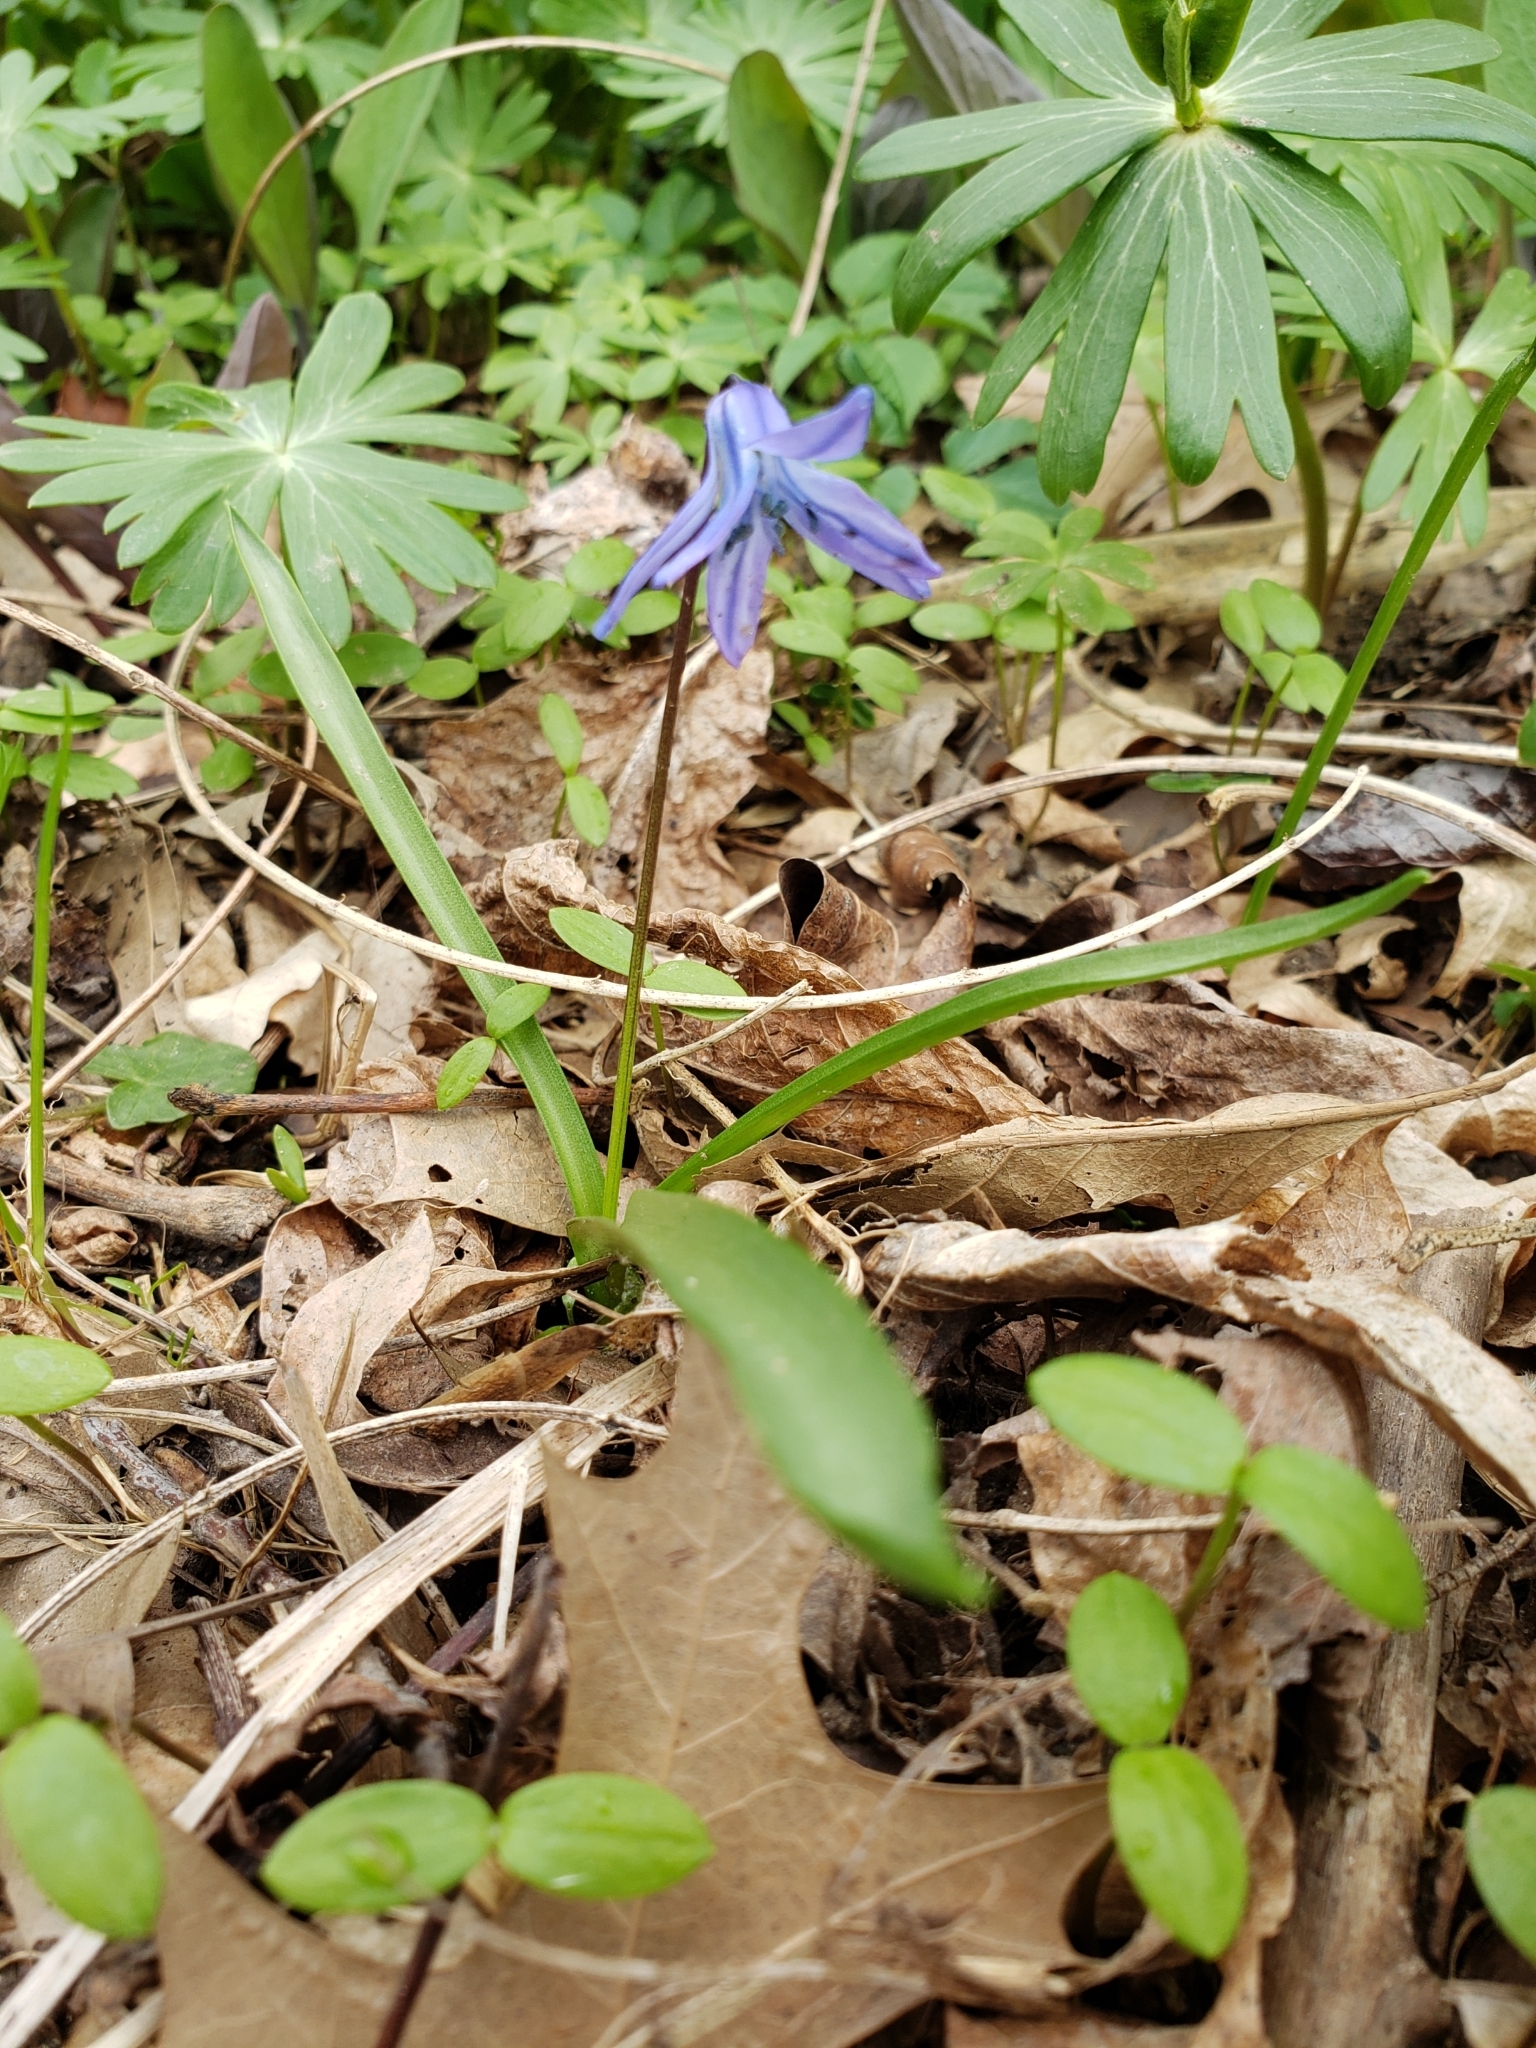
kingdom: Plantae
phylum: Tracheophyta
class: Liliopsida
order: Asparagales
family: Asparagaceae
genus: Scilla
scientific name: Scilla siberica
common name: Siberian squill
